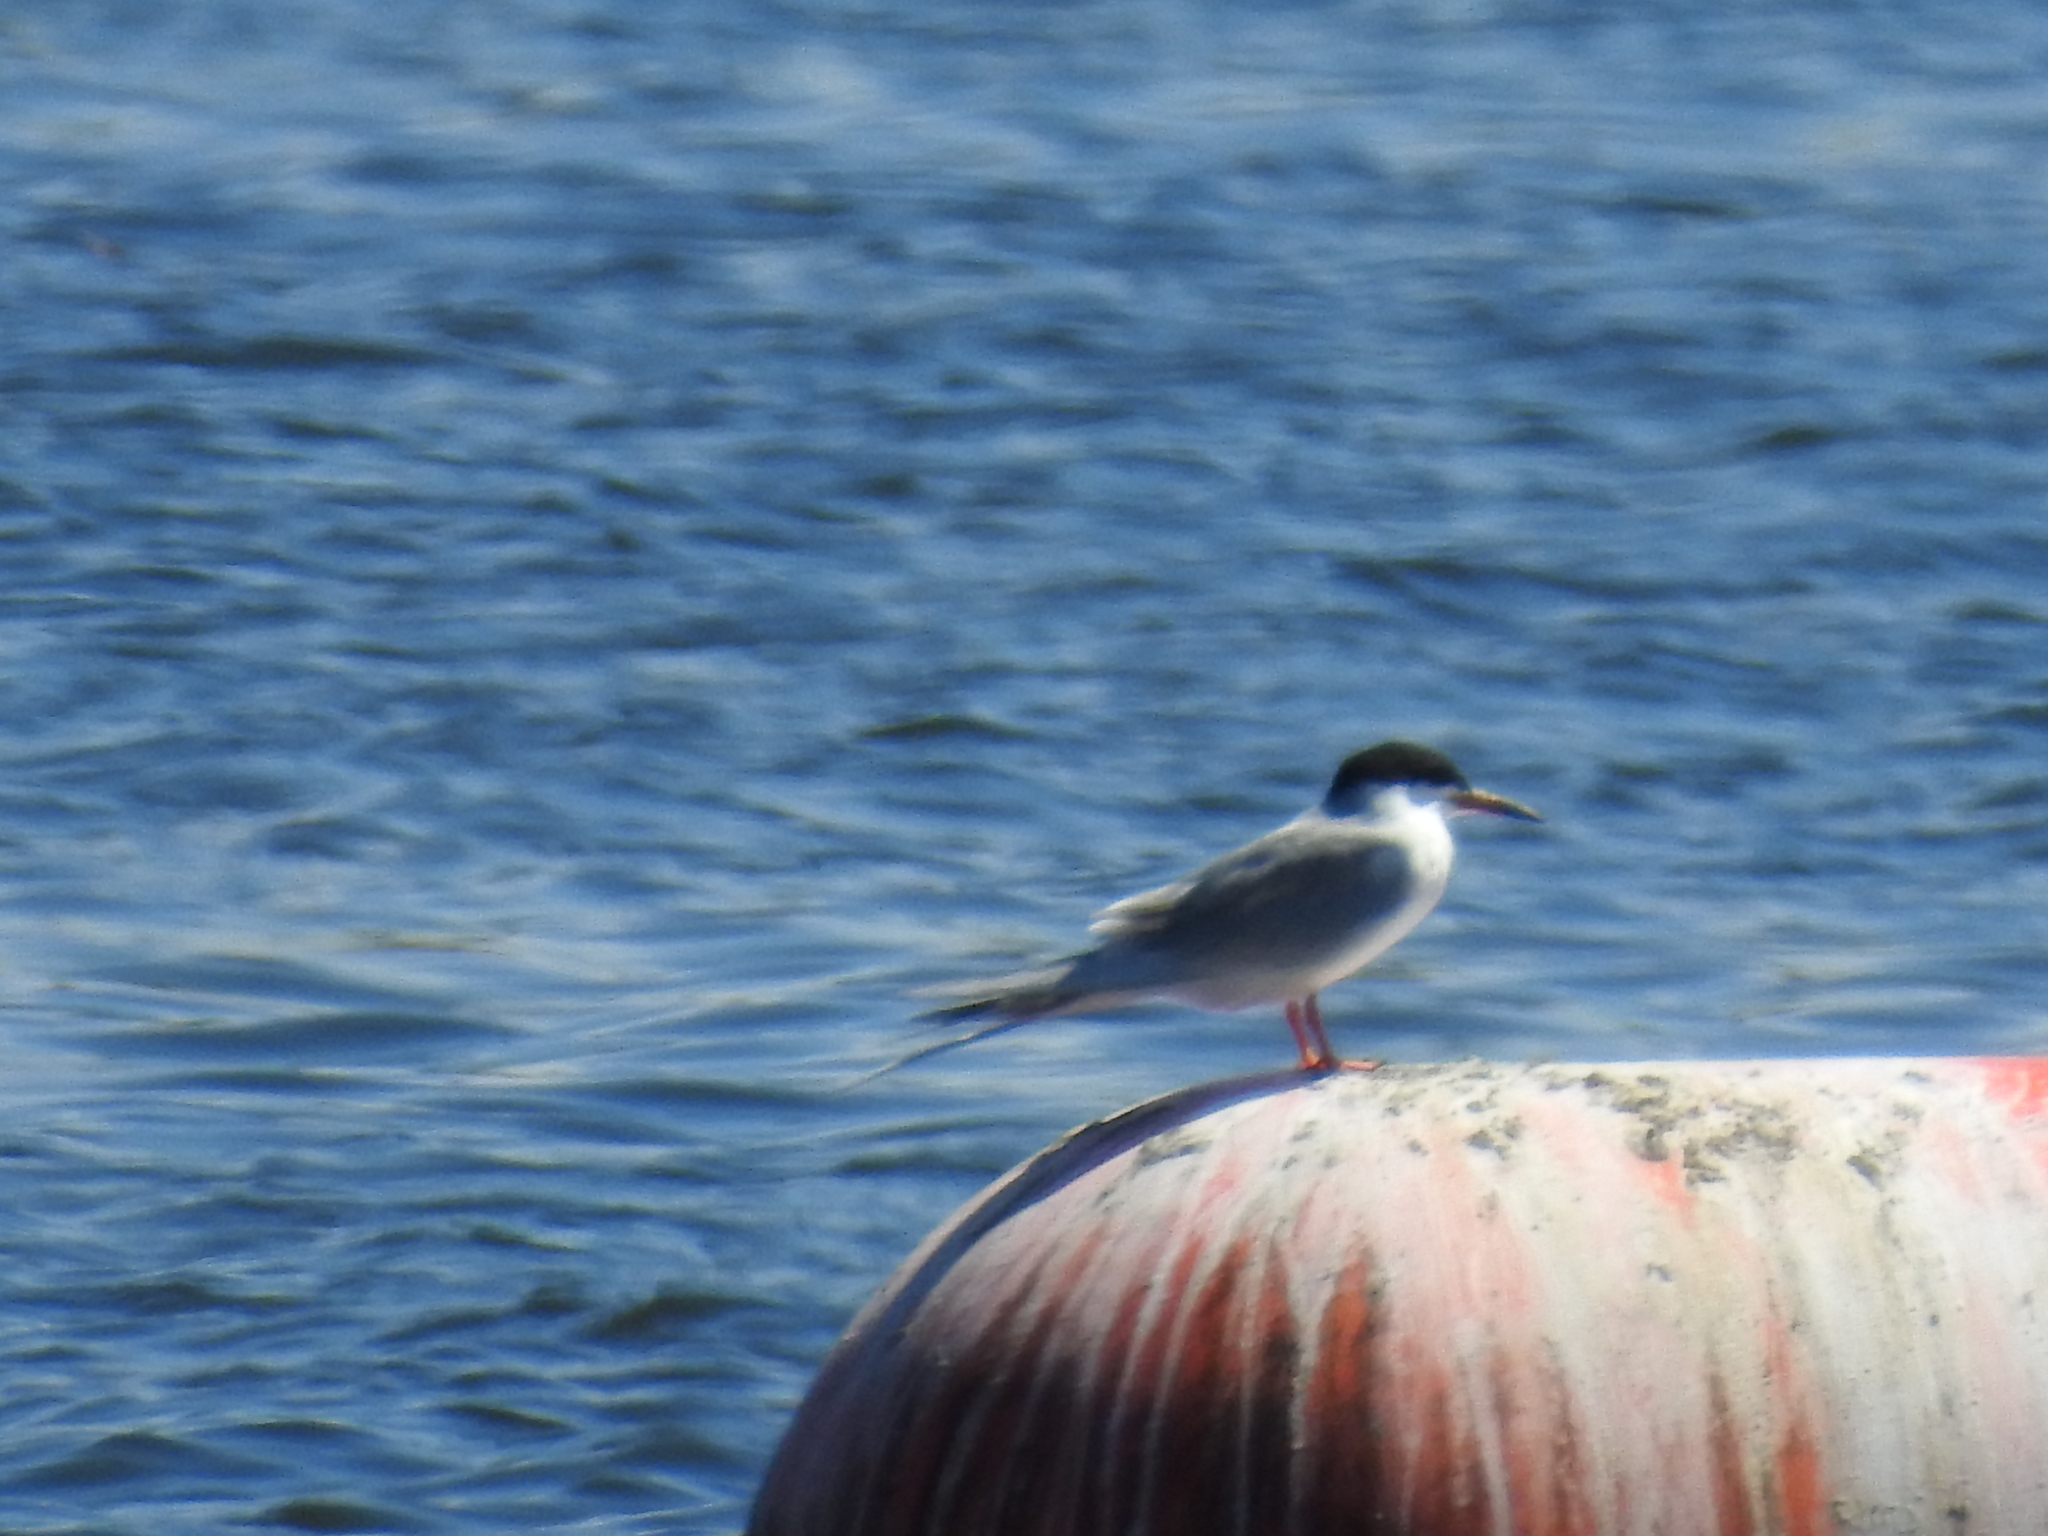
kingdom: Animalia
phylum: Chordata
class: Aves
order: Charadriiformes
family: Laridae
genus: Sterna
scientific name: Sterna forsteri
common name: Forster's tern
